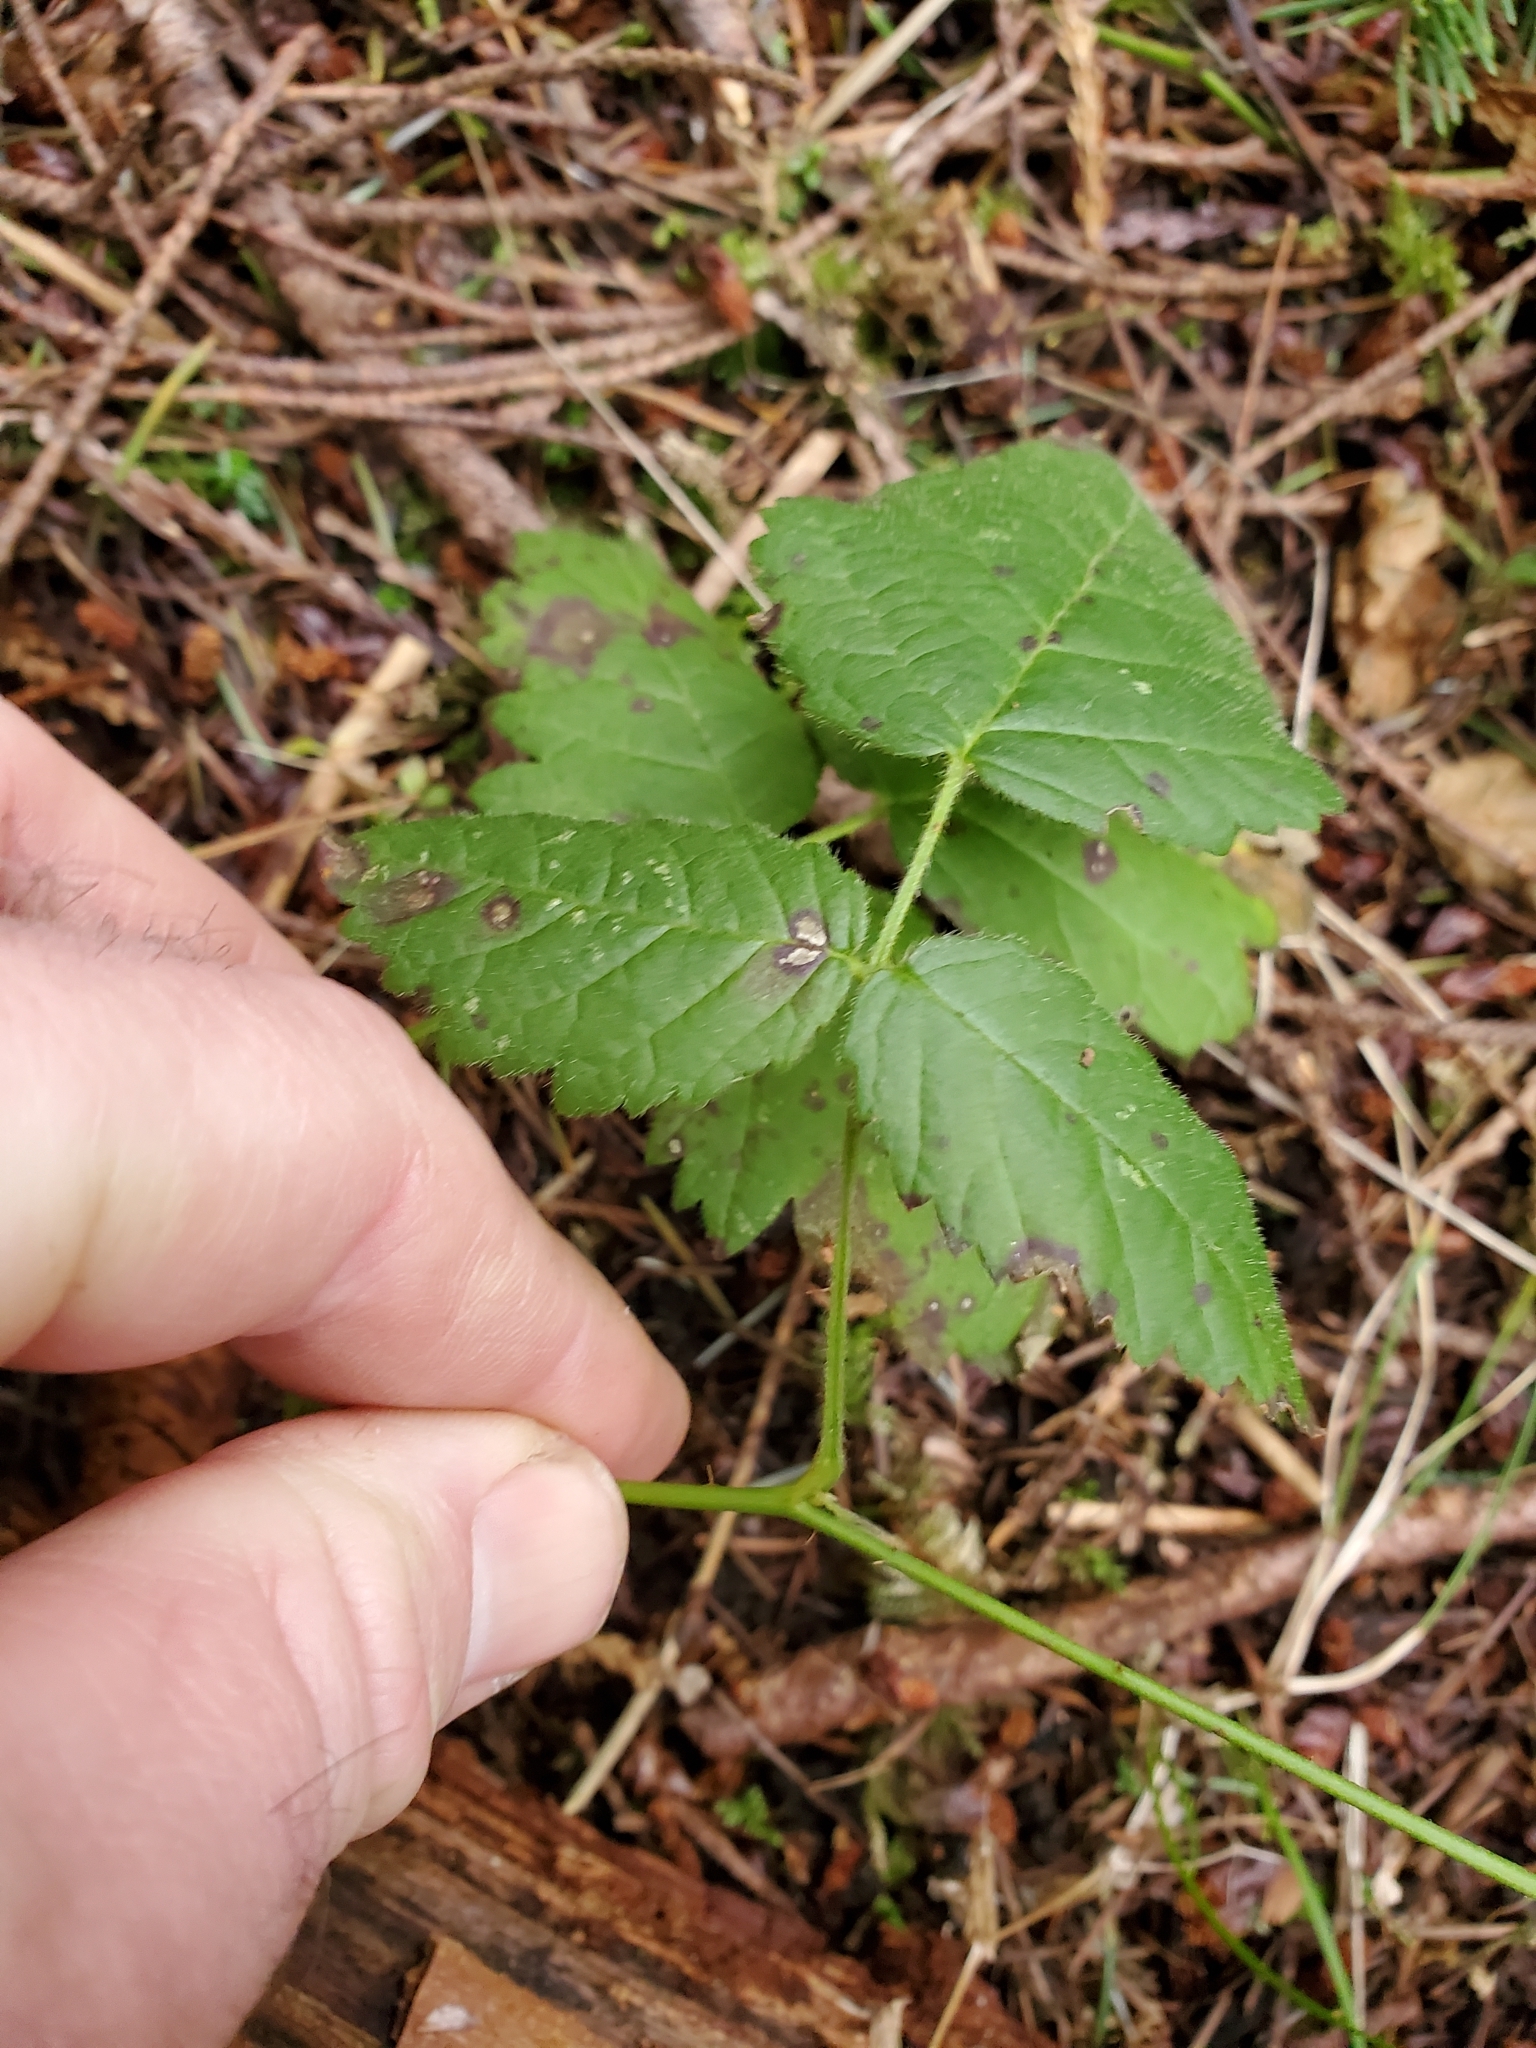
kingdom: Plantae
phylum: Tracheophyta
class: Magnoliopsida
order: Rosales
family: Rosaceae
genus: Rubus
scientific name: Rubus ursinus
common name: Pacific blackberry
